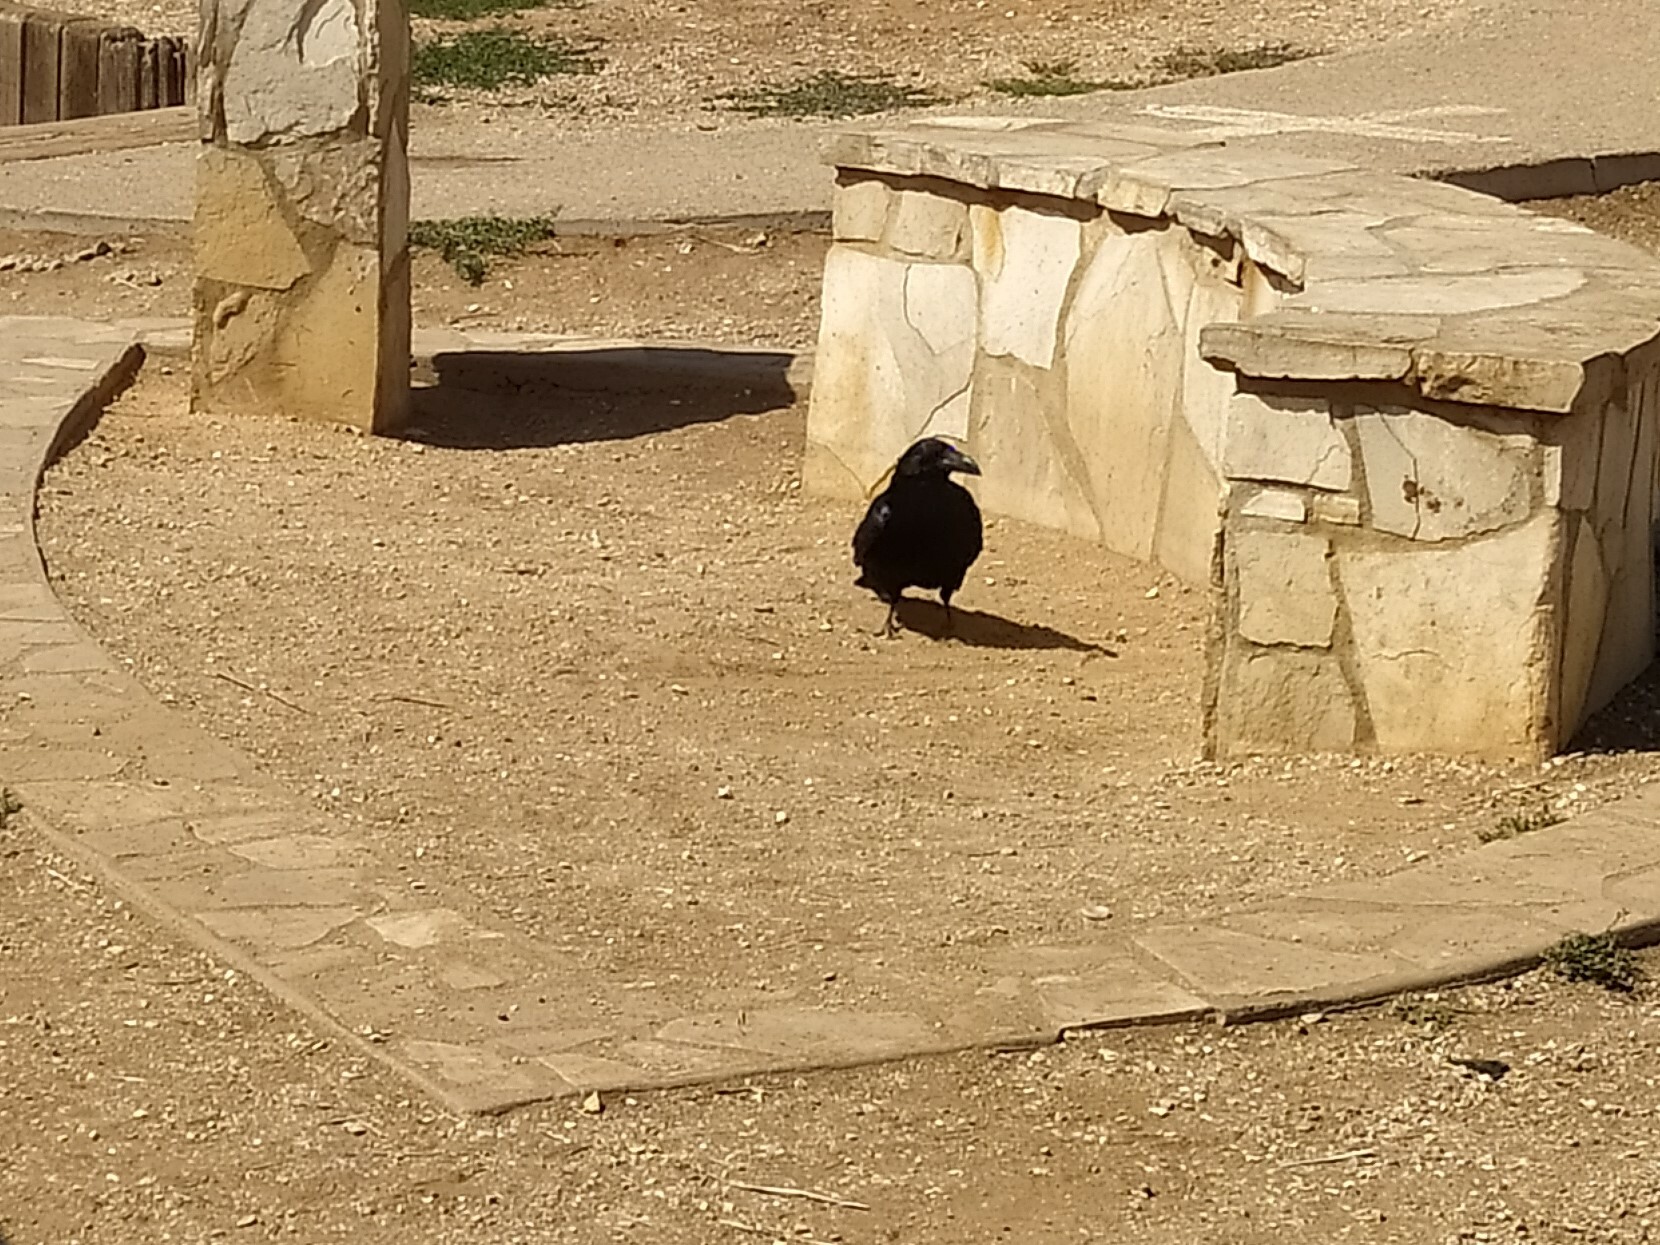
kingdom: Animalia
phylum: Chordata
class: Aves
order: Passeriformes
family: Corvidae
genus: Corvus
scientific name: Corvus corax
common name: Common raven
